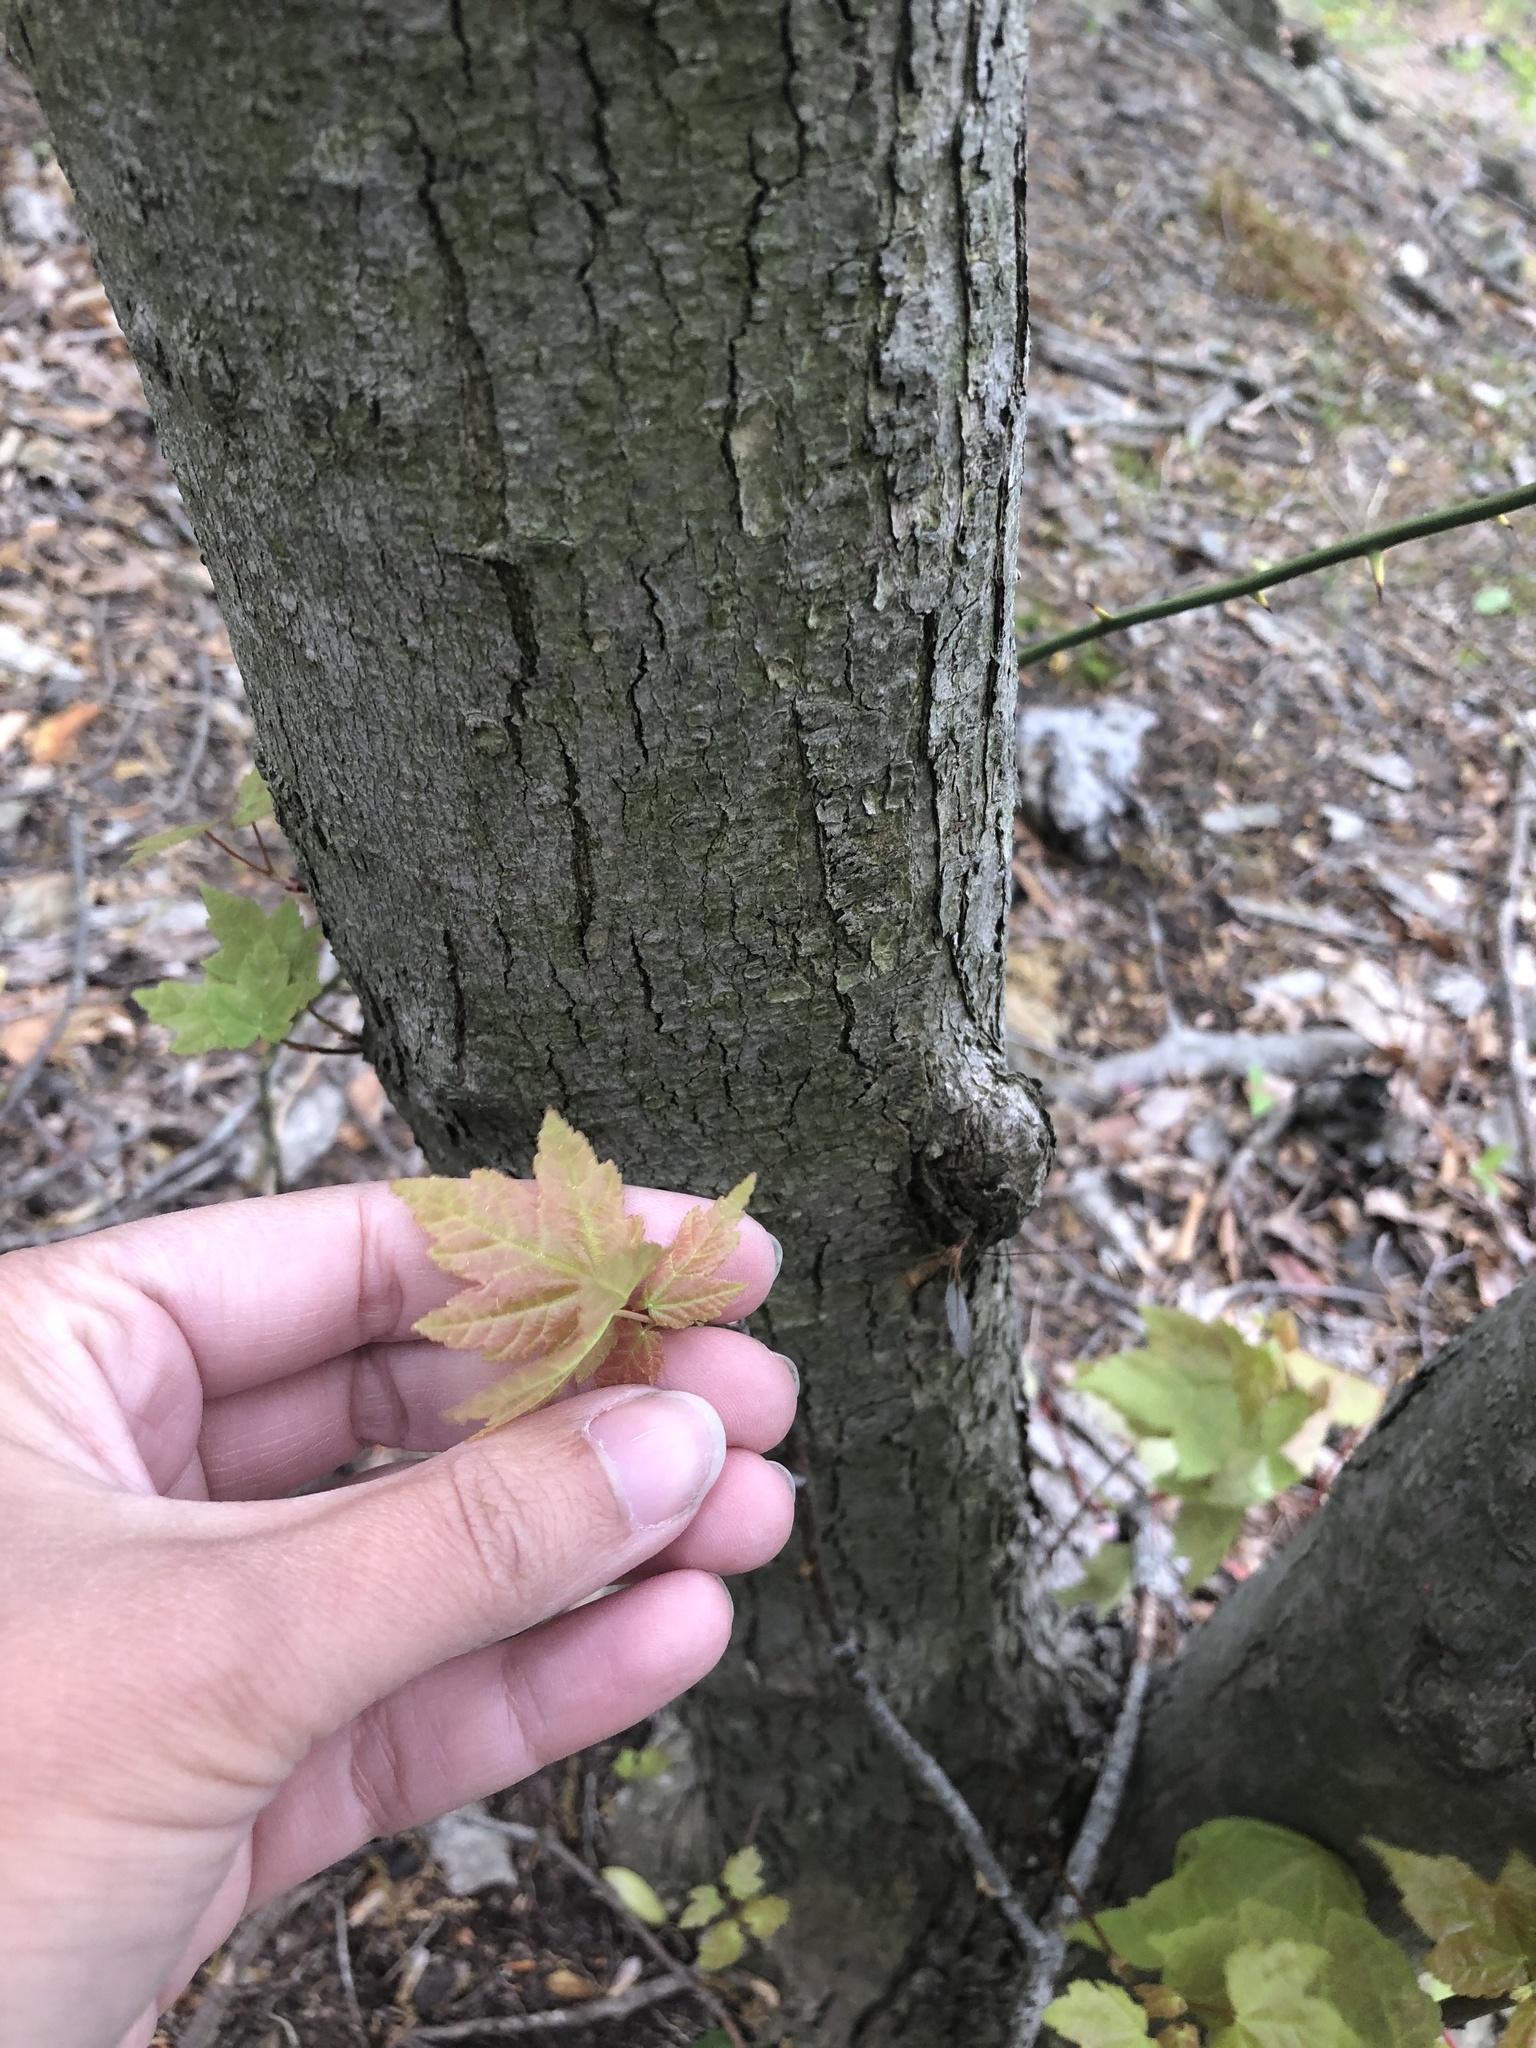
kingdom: Plantae
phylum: Tracheophyta
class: Magnoliopsida
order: Sapindales
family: Sapindaceae
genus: Acer
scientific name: Acer rubrum
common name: Red maple
